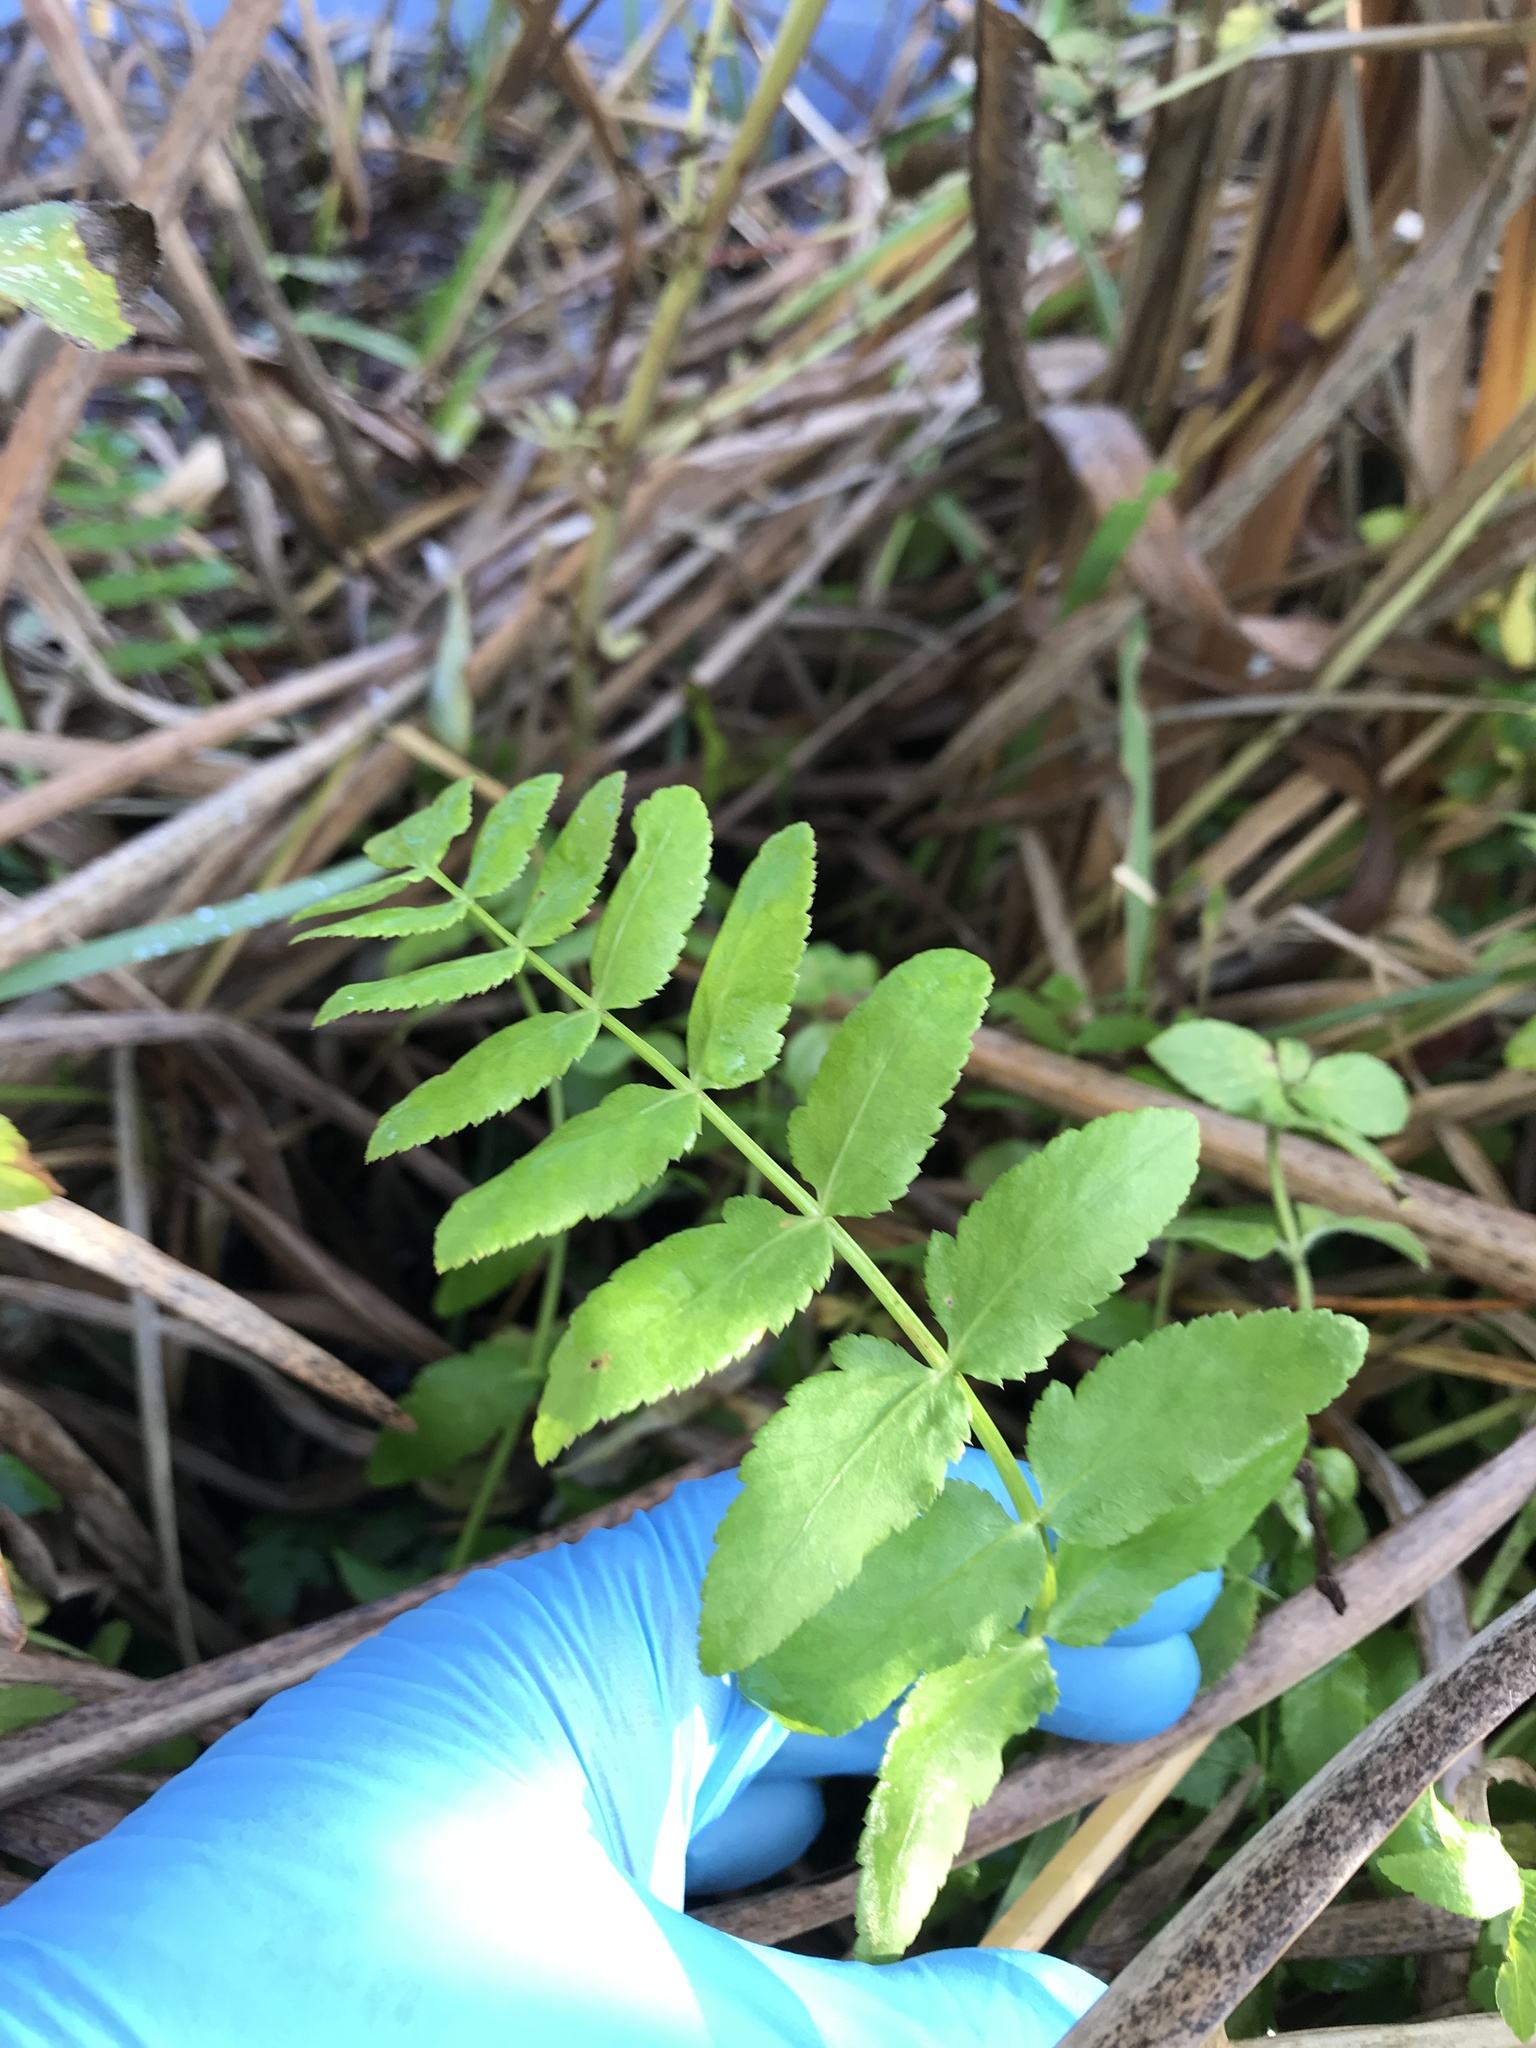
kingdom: Plantae
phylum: Tracheophyta
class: Magnoliopsida
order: Apiales
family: Apiaceae
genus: Helosciadium
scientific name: Helosciadium nodiflorum
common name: Fool's-watercress
